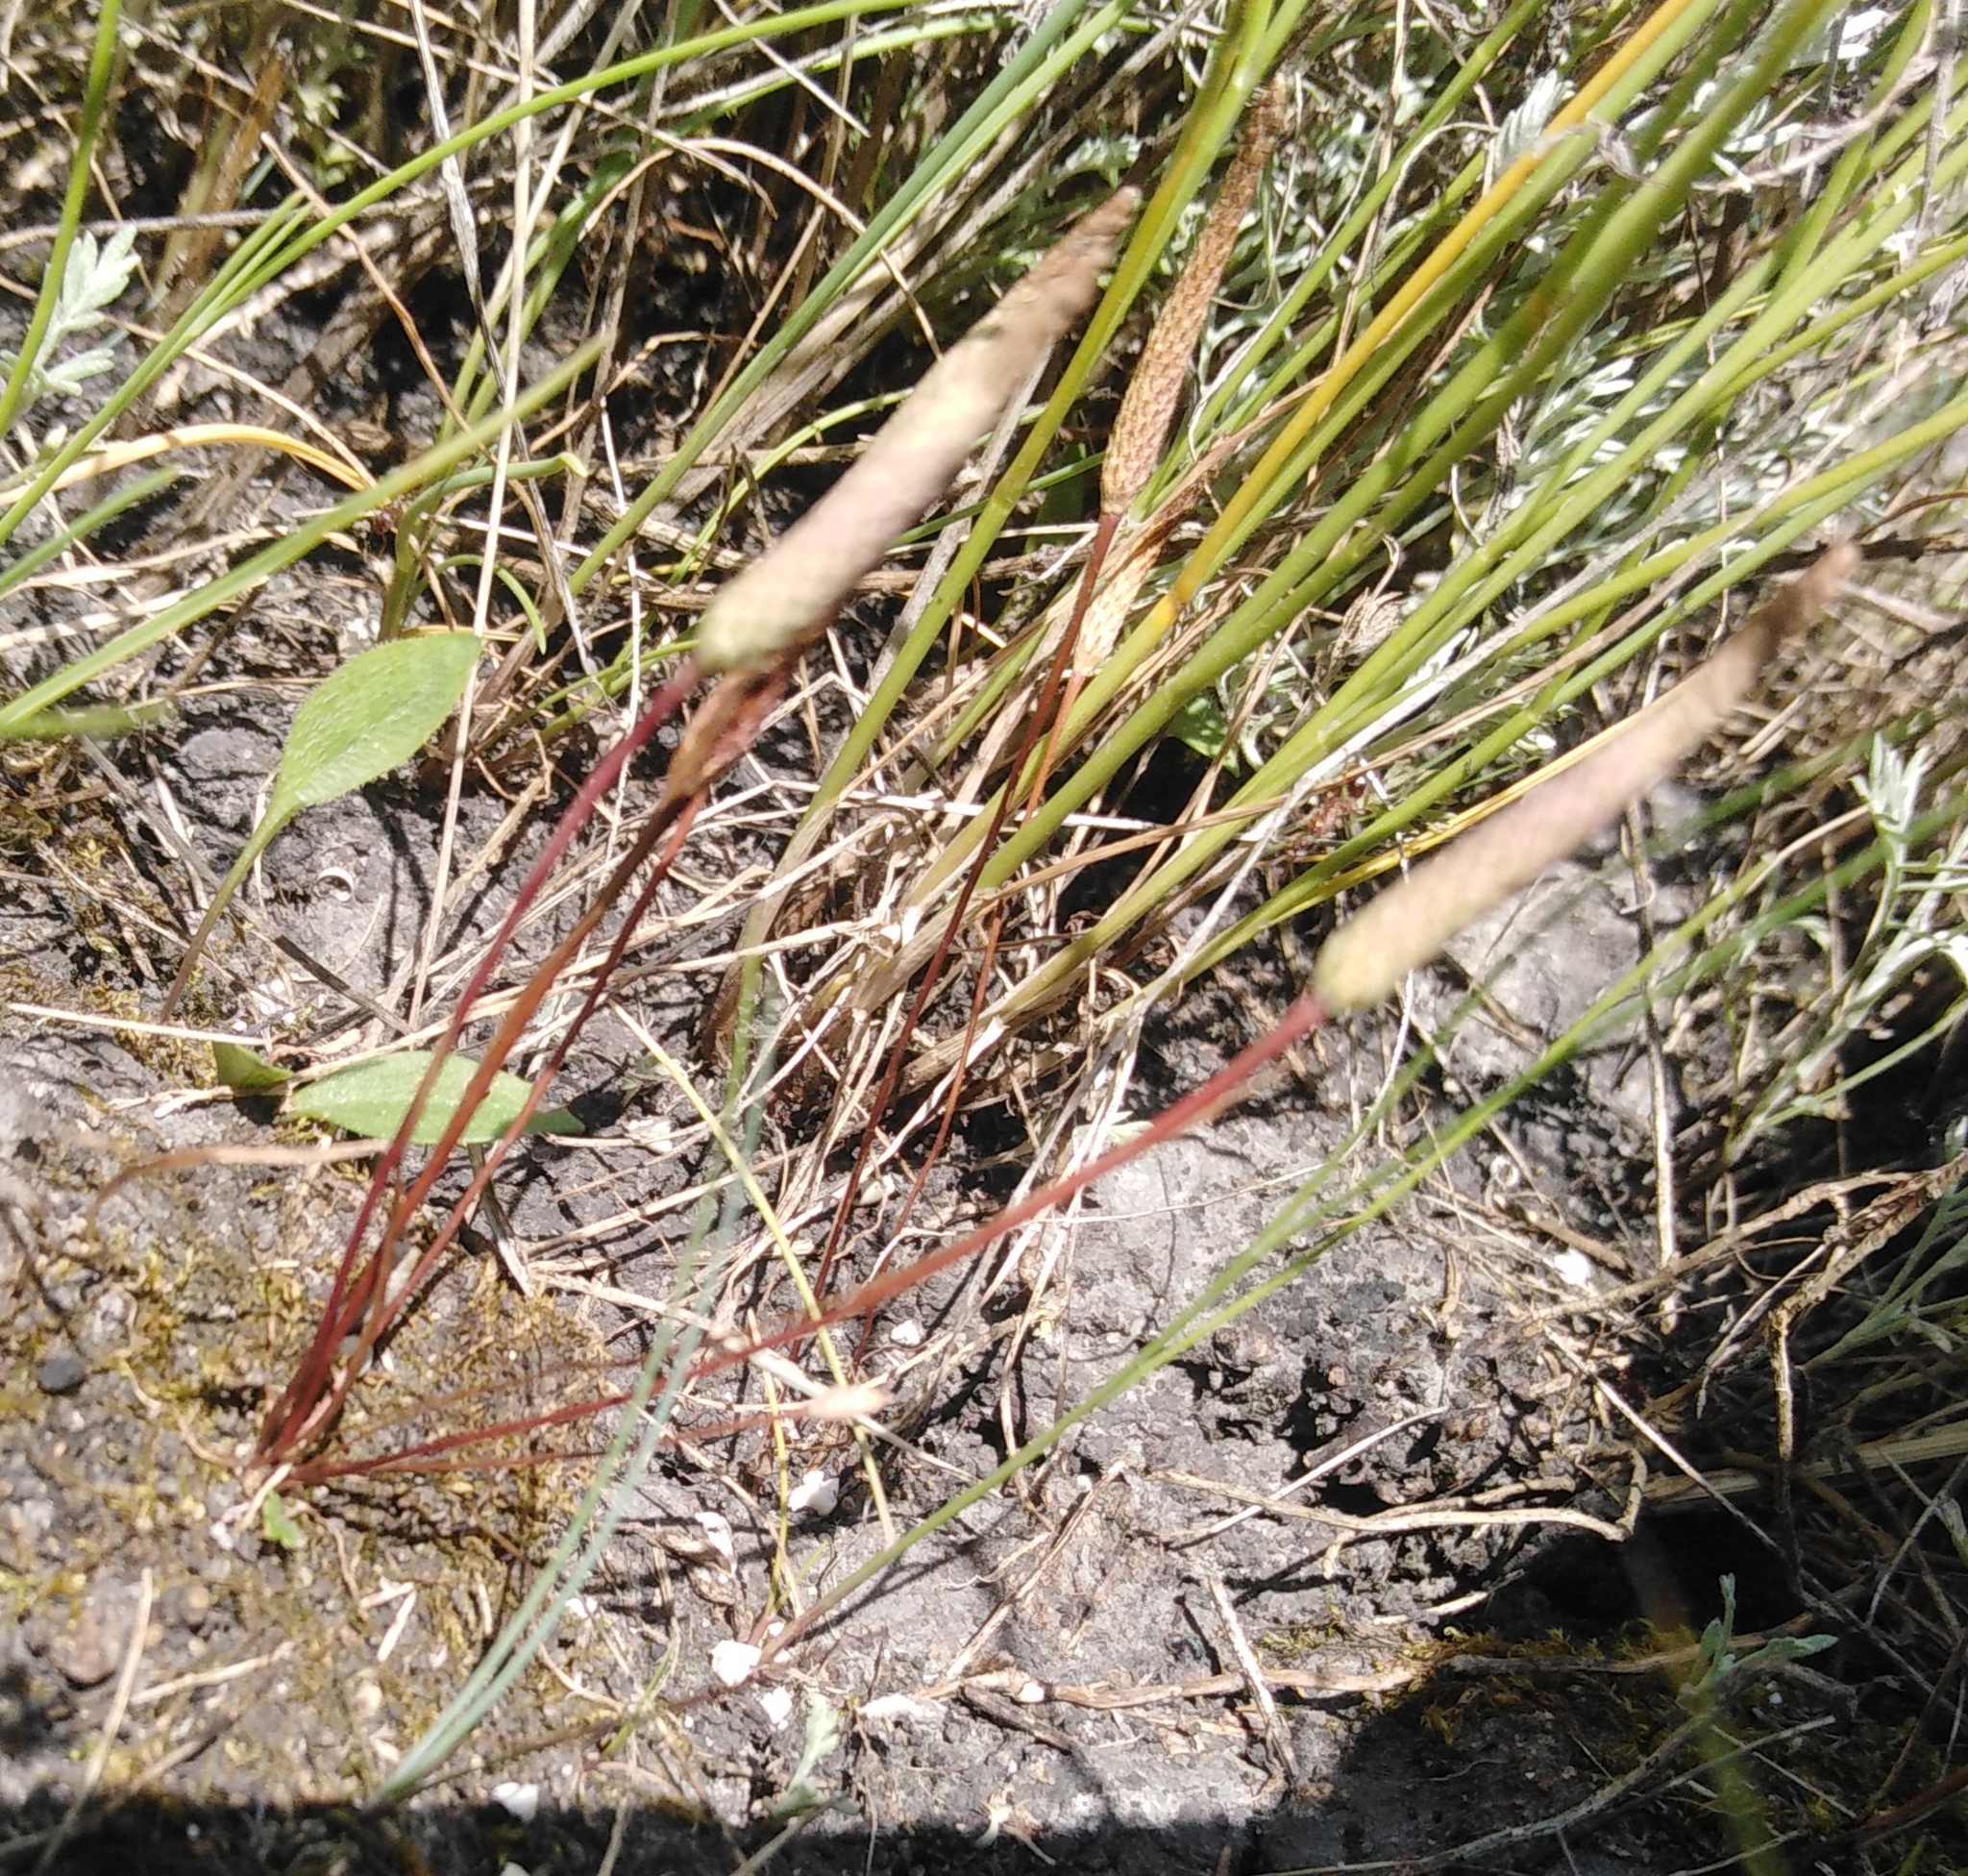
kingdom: Plantae
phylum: Tracheophyta
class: Magnoliopsida
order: Ranunculales
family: Ranunculaceae
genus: Myosurus
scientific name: Myosurus minimus
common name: Mousetail
